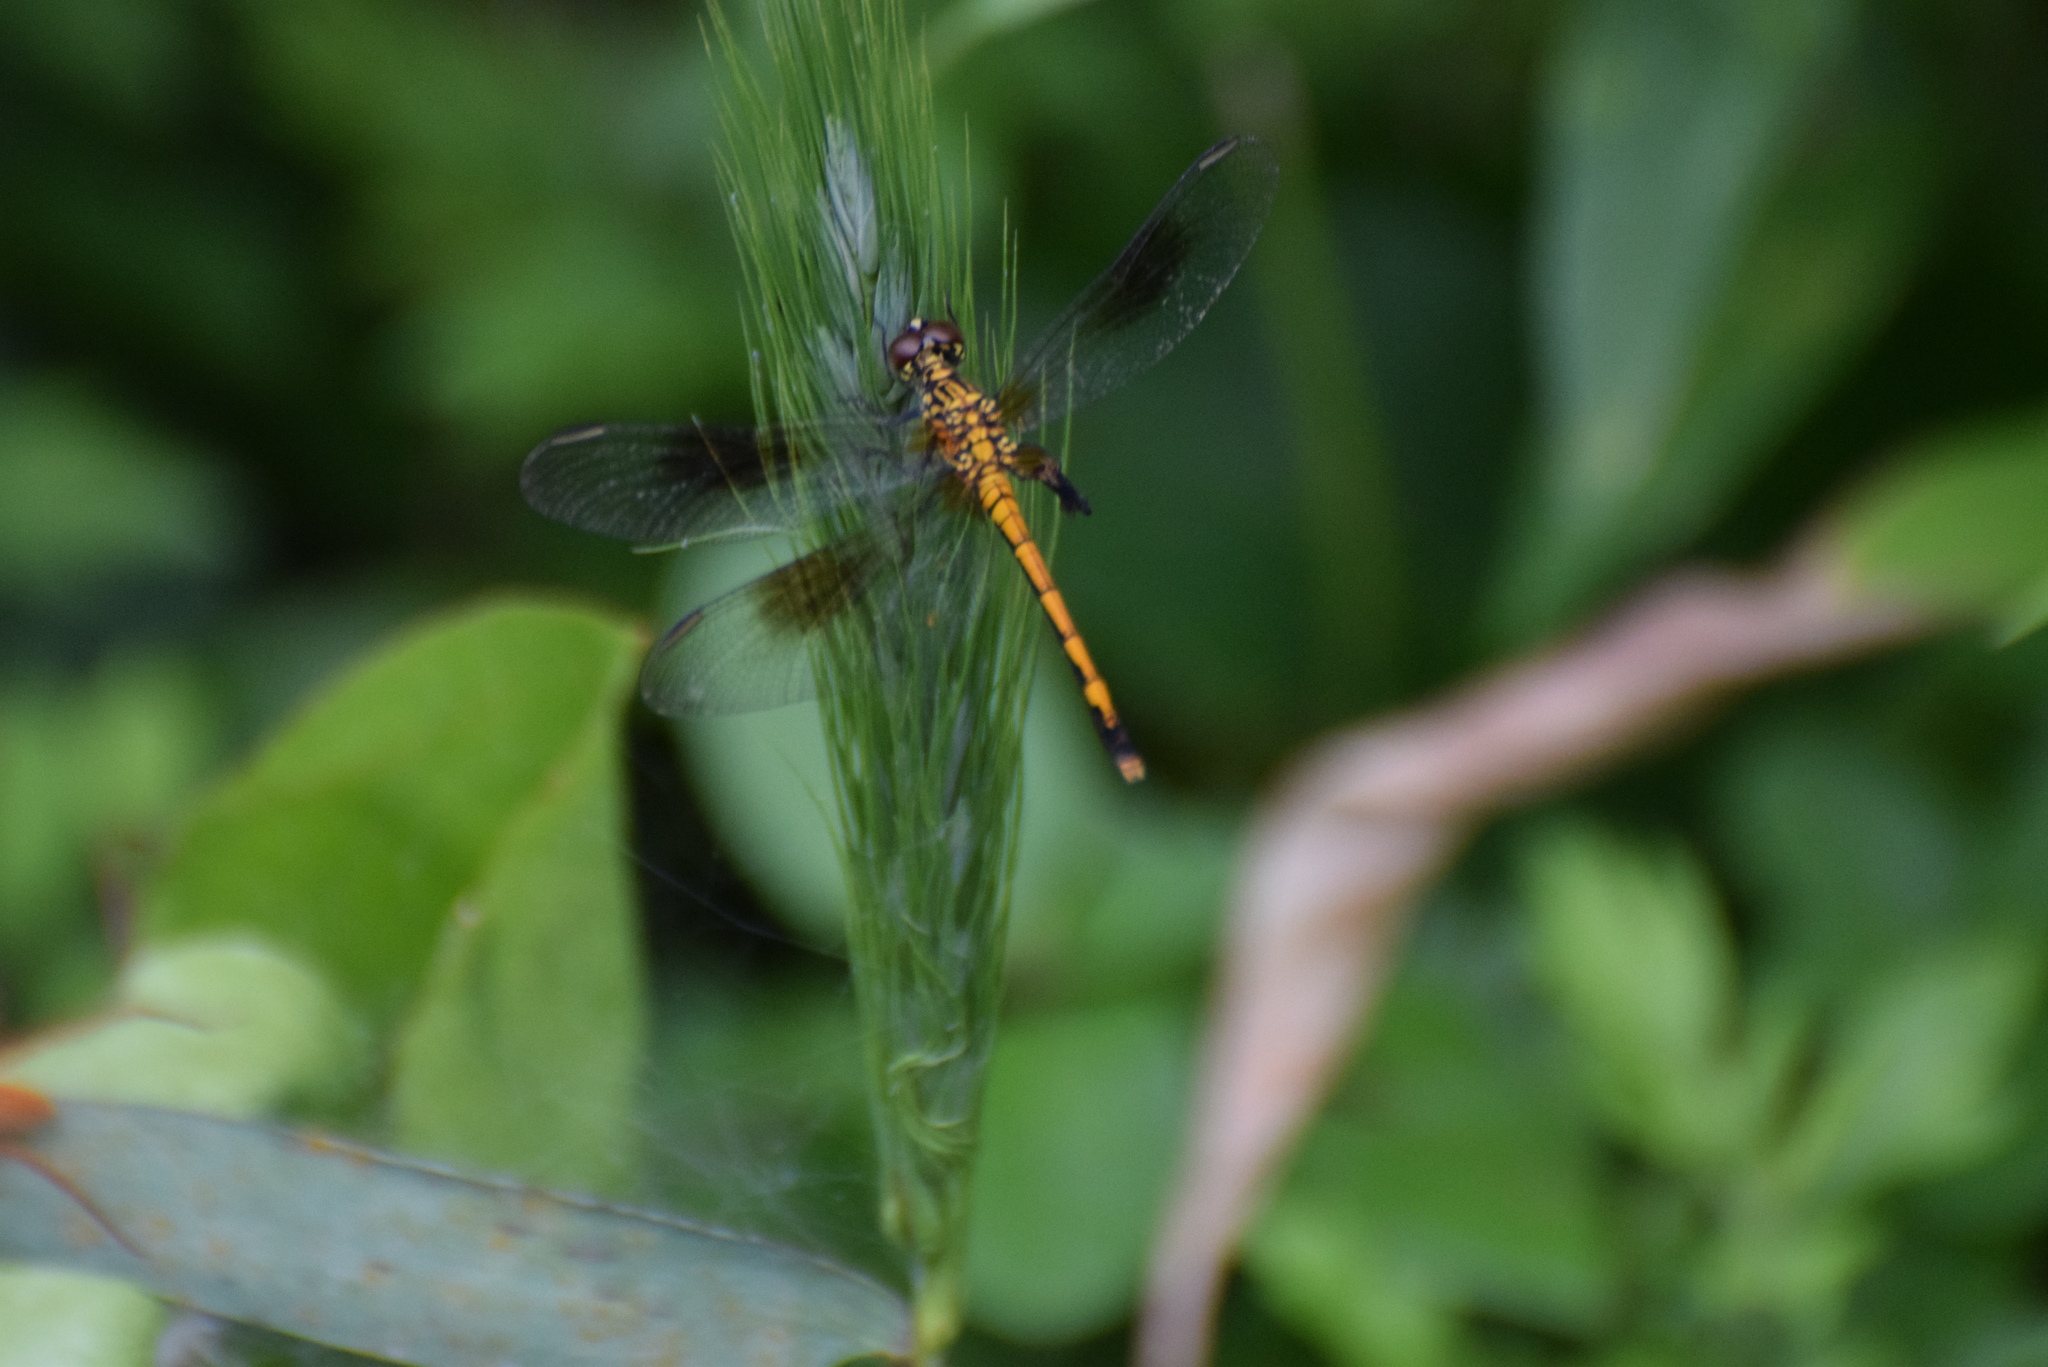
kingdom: Animalia
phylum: Arthropoda
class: Insecta
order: Odonata
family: Libellulidae
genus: Erythrodiplax
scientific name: Erythrodiplax berenice
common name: Seaside dragonlet
